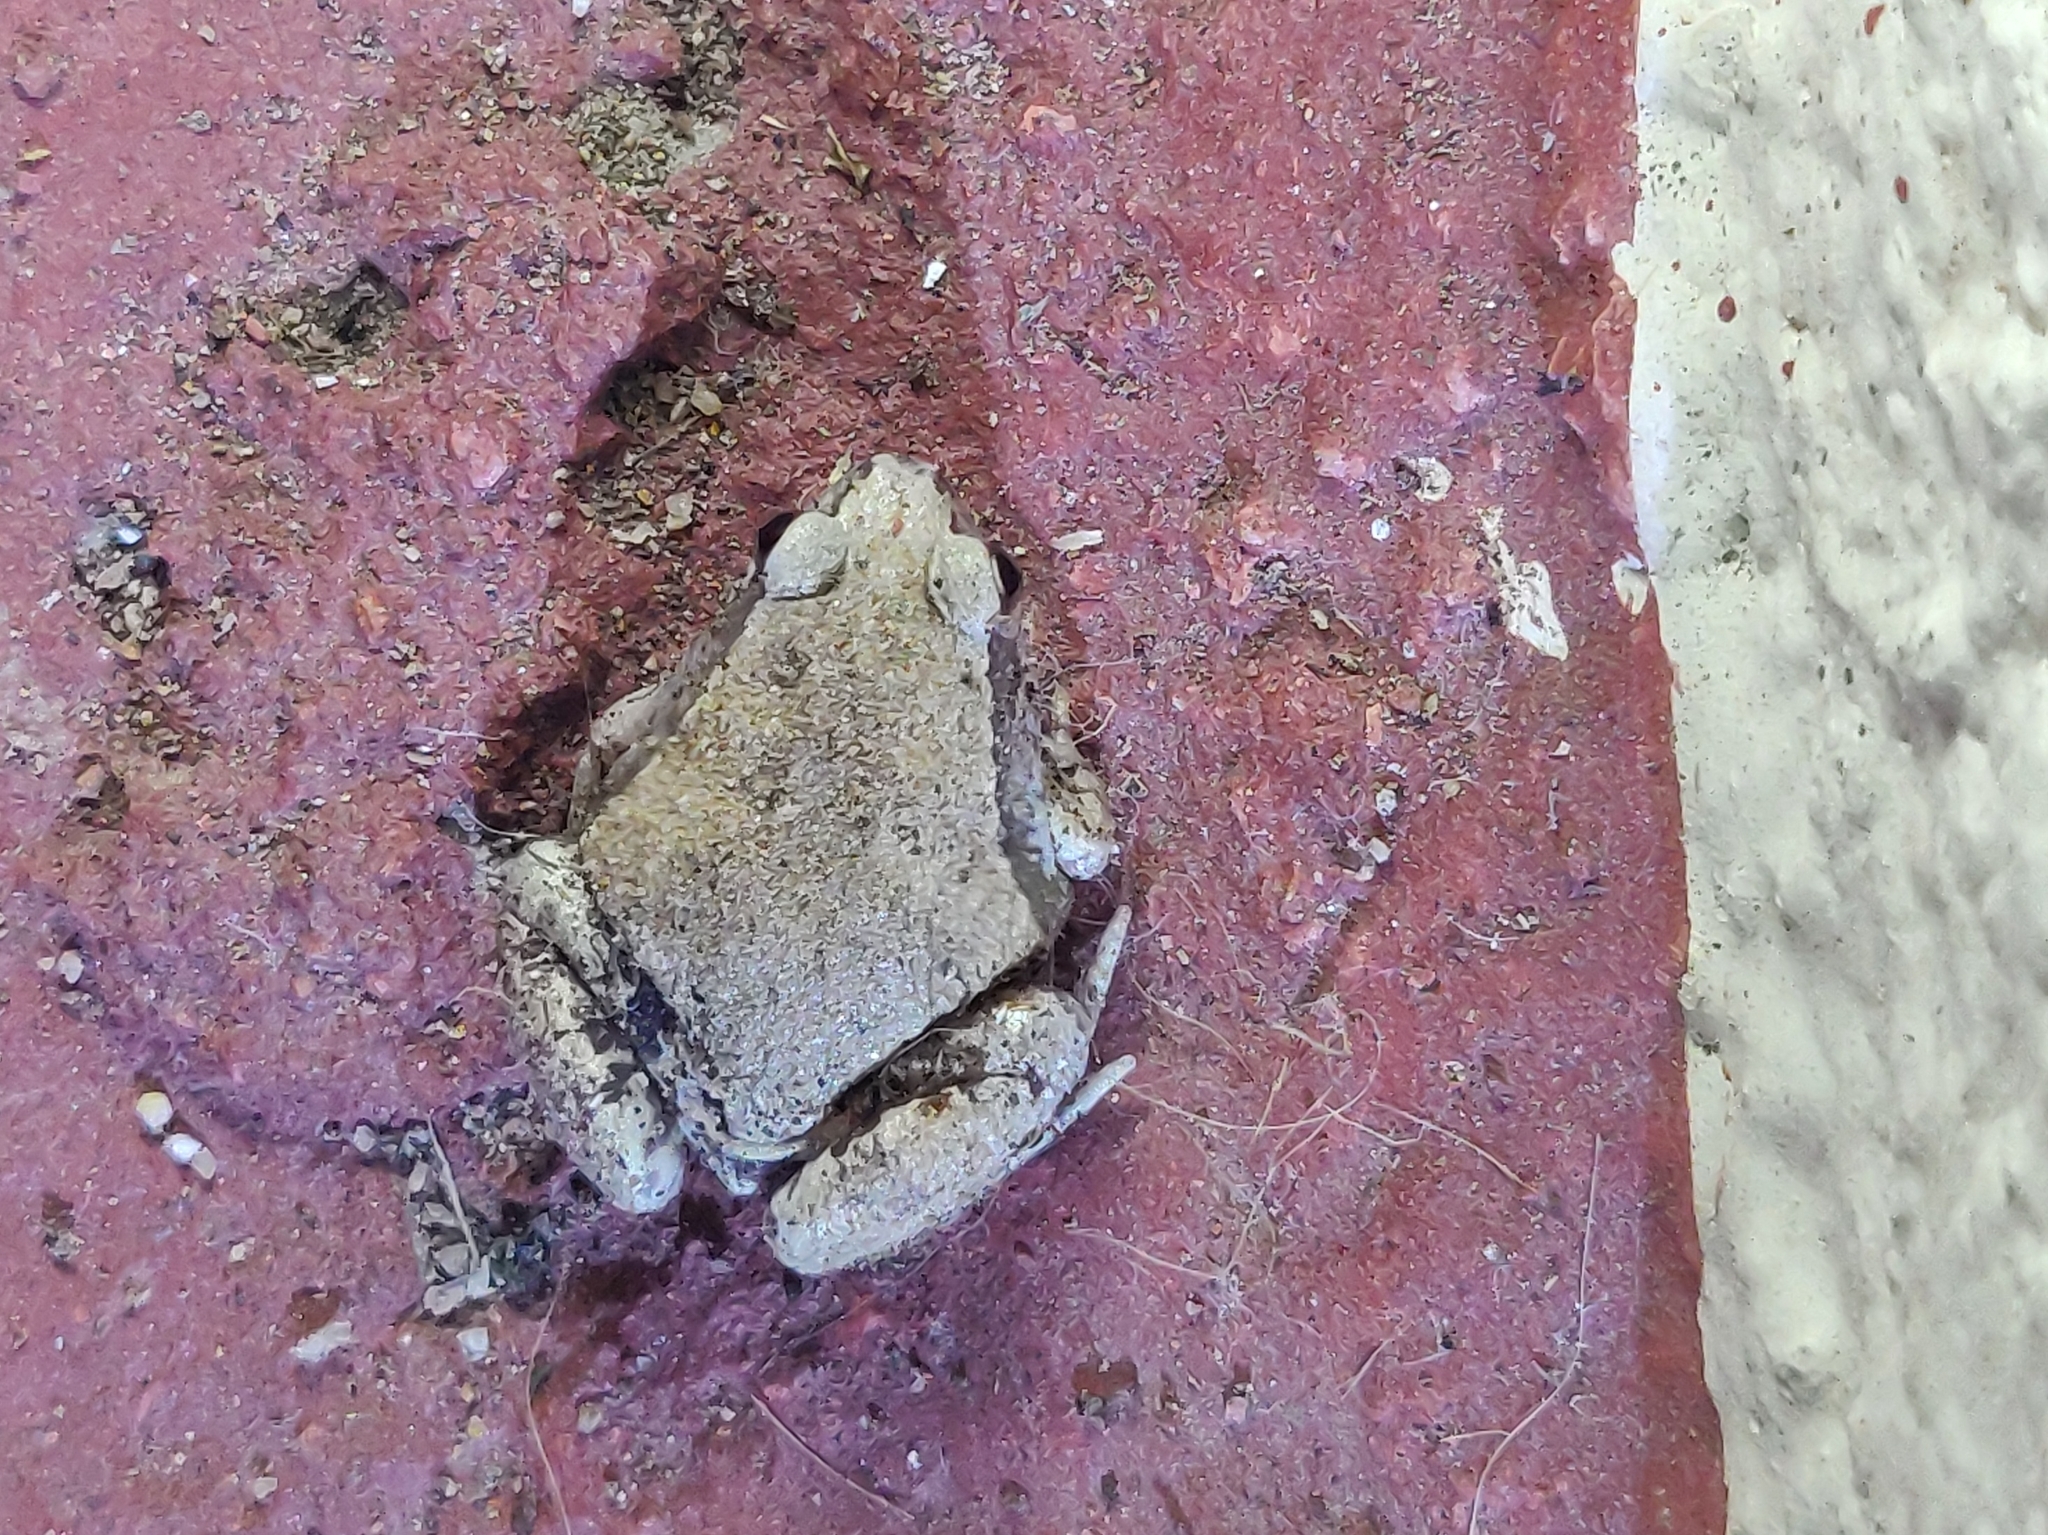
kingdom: Animalia
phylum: Chordata
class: Amphibia
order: Anura
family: Microhylidae
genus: Microhyla
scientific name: Microhyla rubra
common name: Guangdong rice frog
